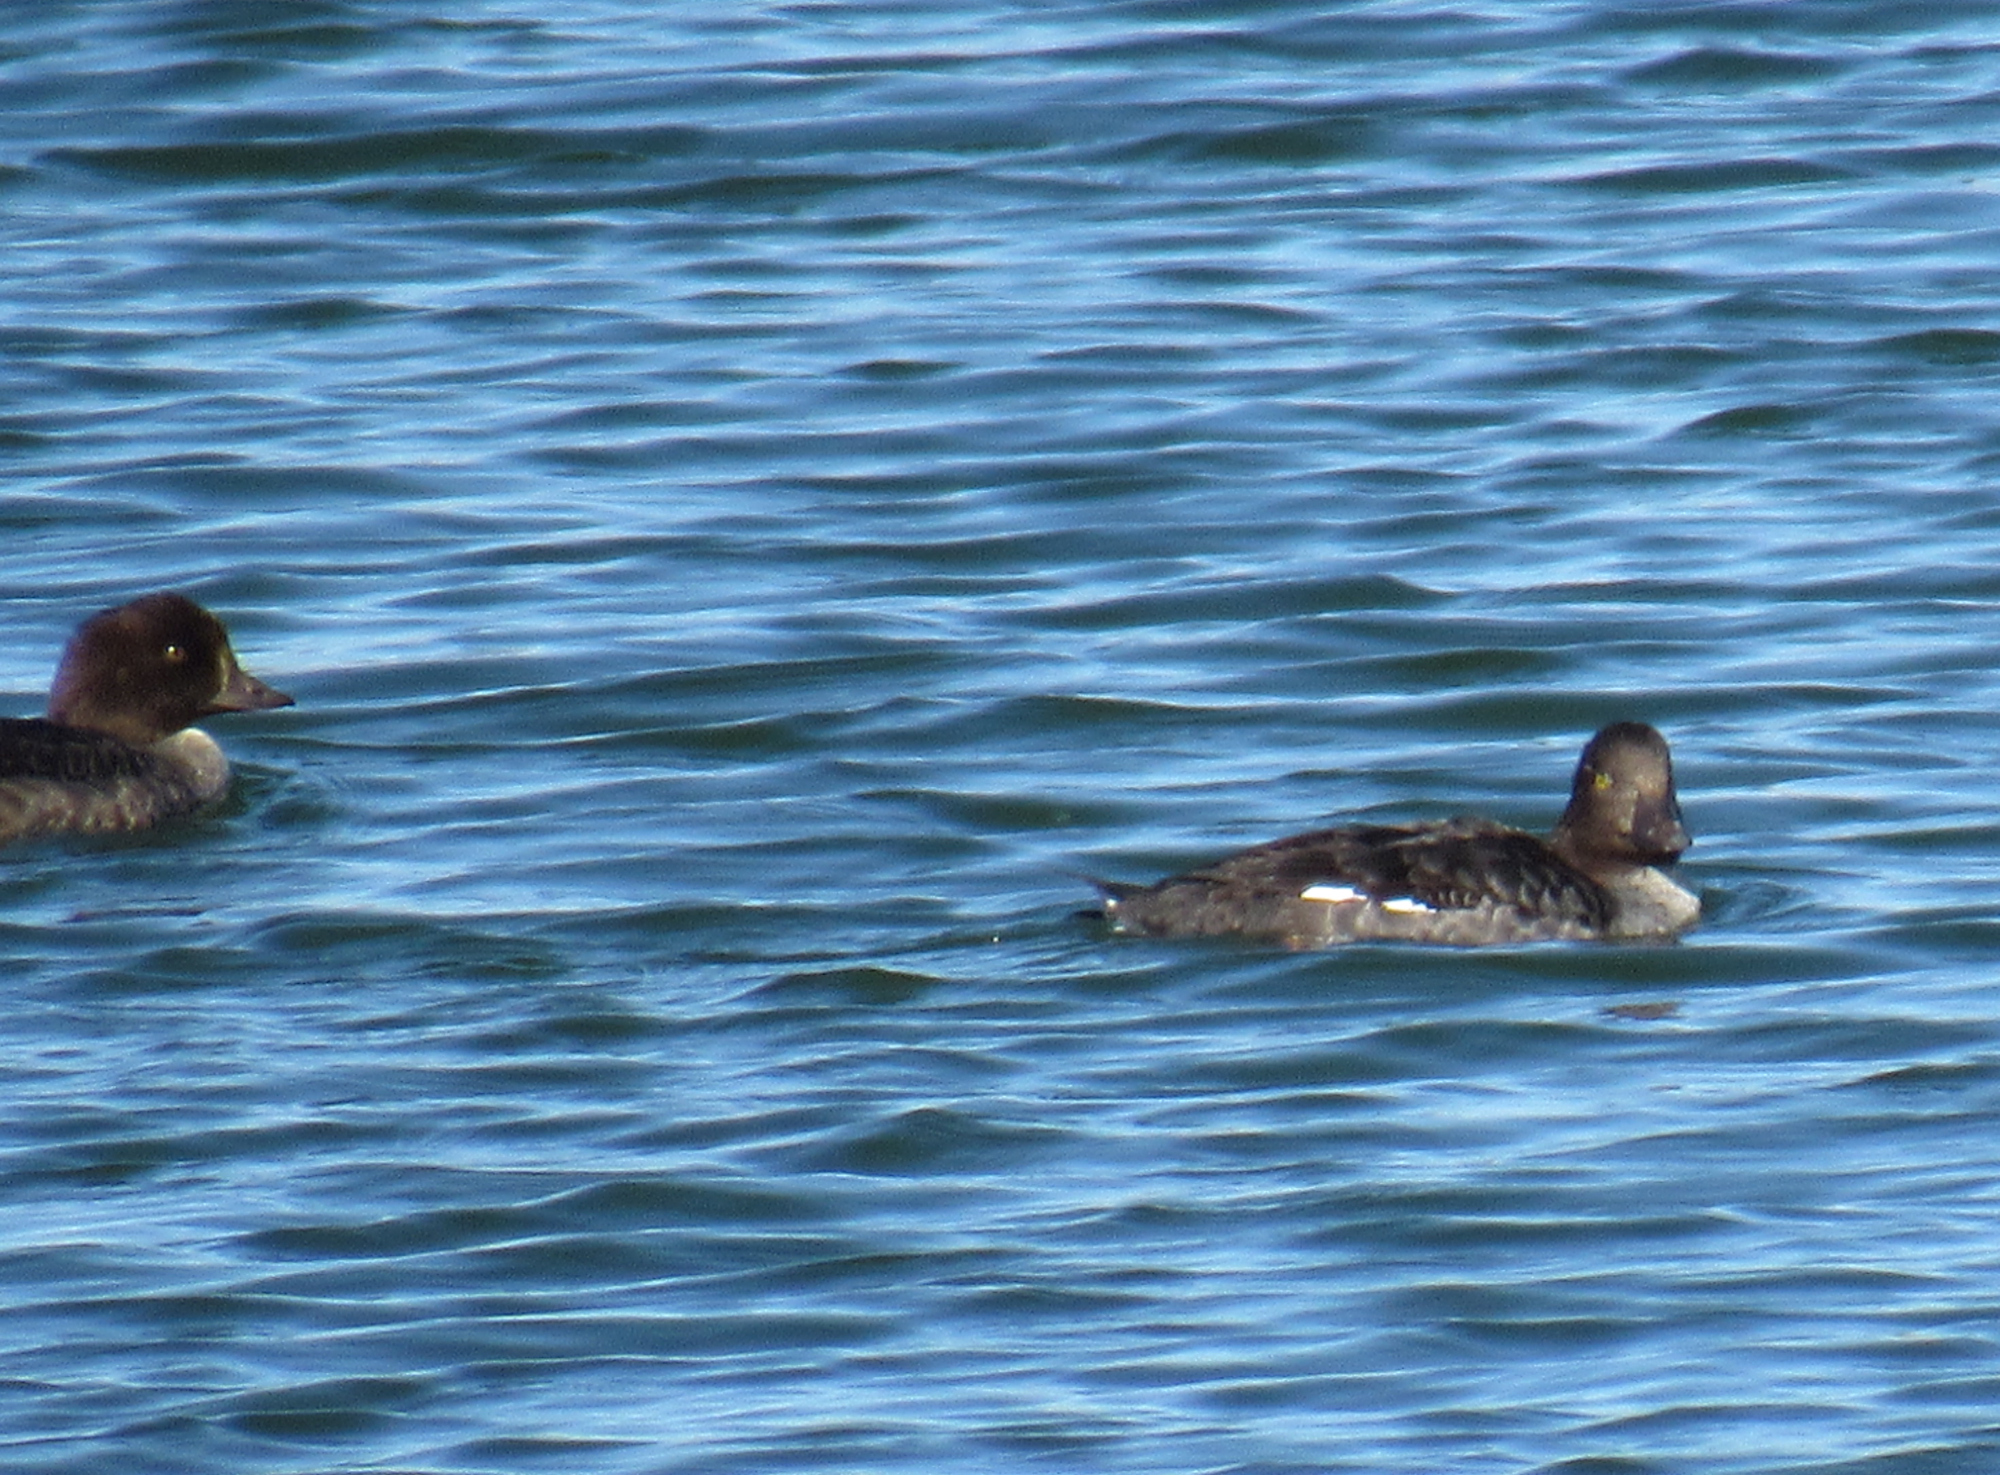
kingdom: Animalia
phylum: Chordata
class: Aves
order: Anseriformes
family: Anatidae
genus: Bucephala
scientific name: Bucephala islandica
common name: Barrow's goldeneye
